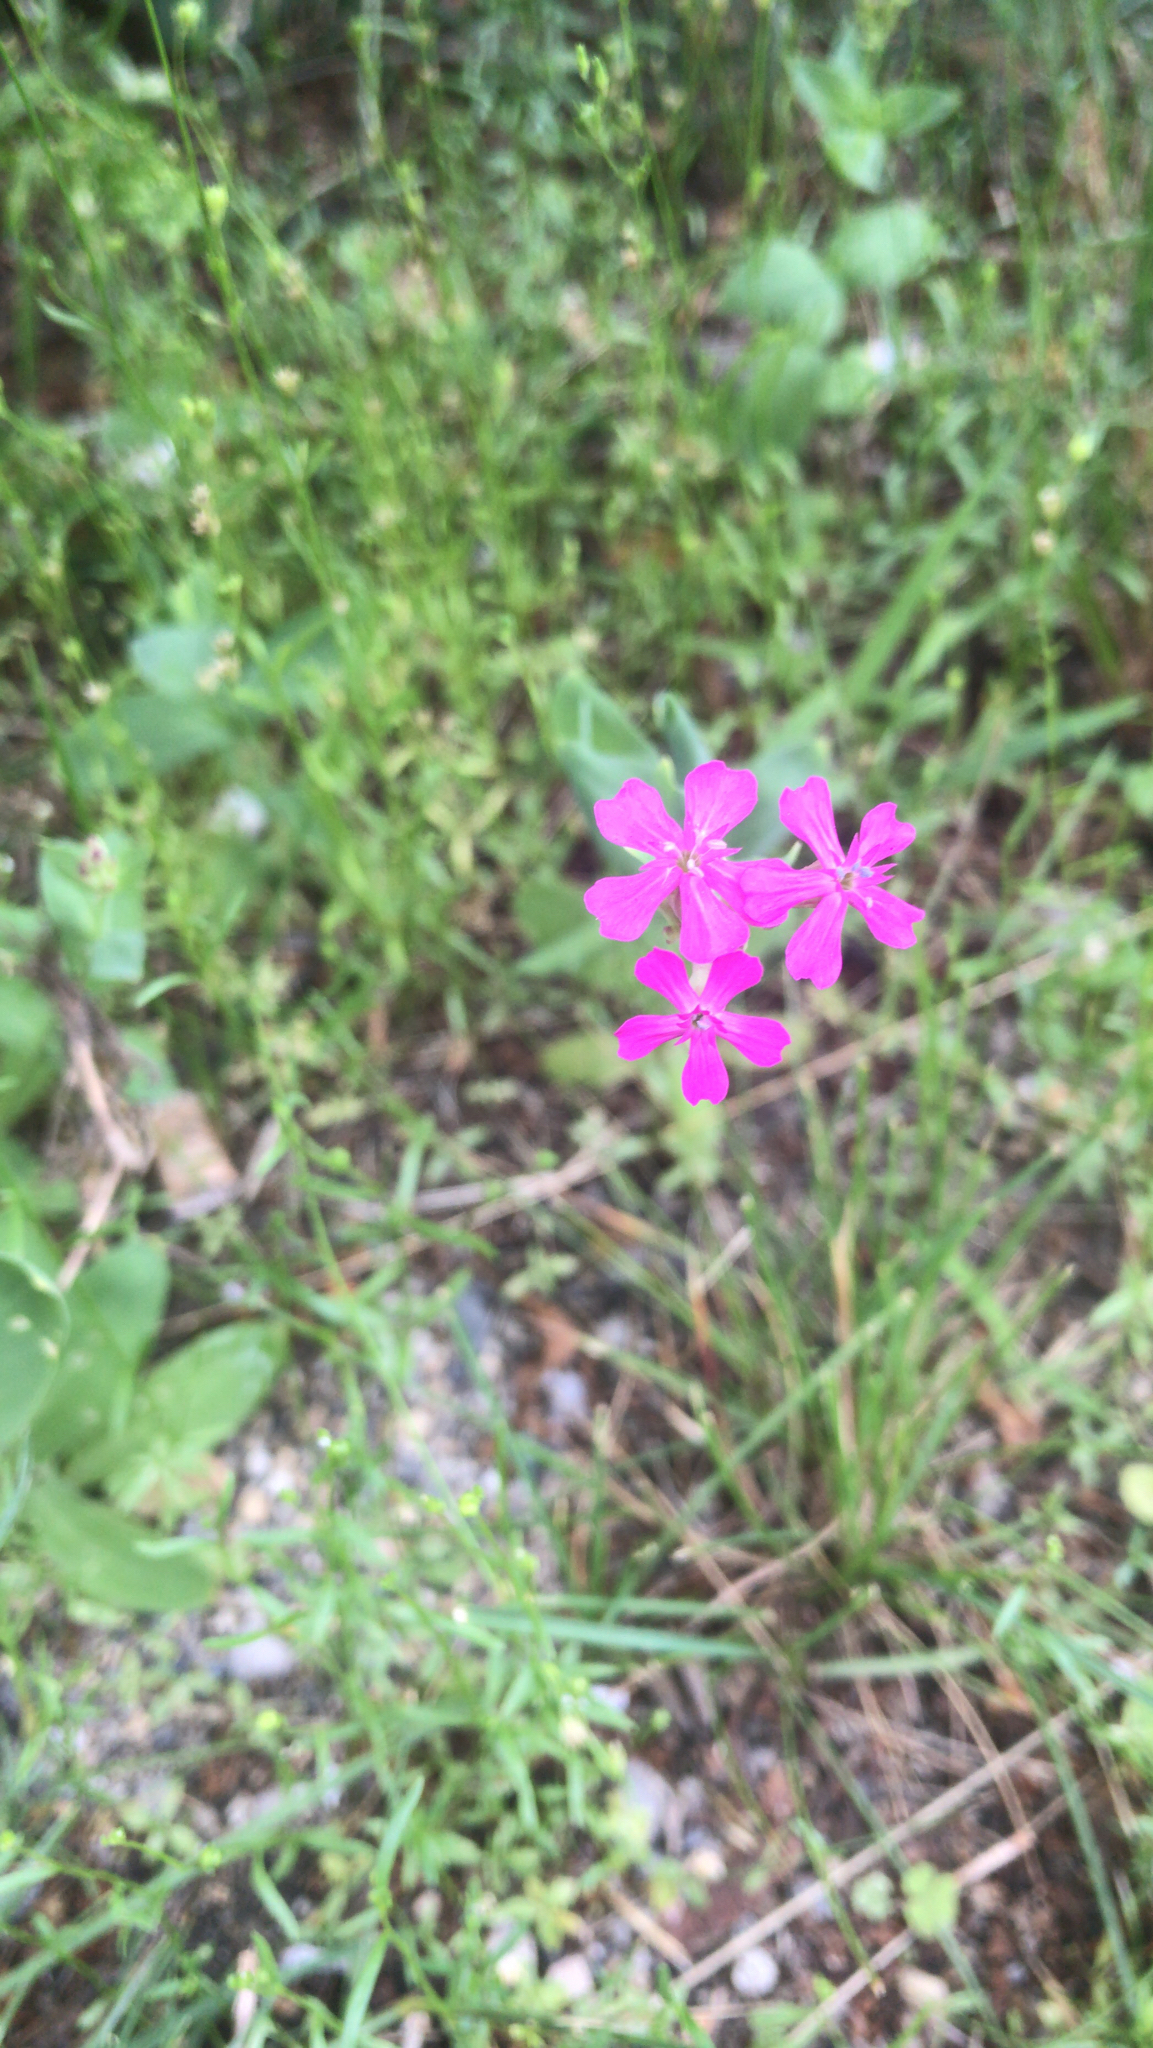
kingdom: Plantae
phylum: Tracheophyta
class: Magnoliopsida
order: Caryophyllales
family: Caryophyllaceae
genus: Atocion
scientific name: Atocion armeria
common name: Sweet william catchfly
